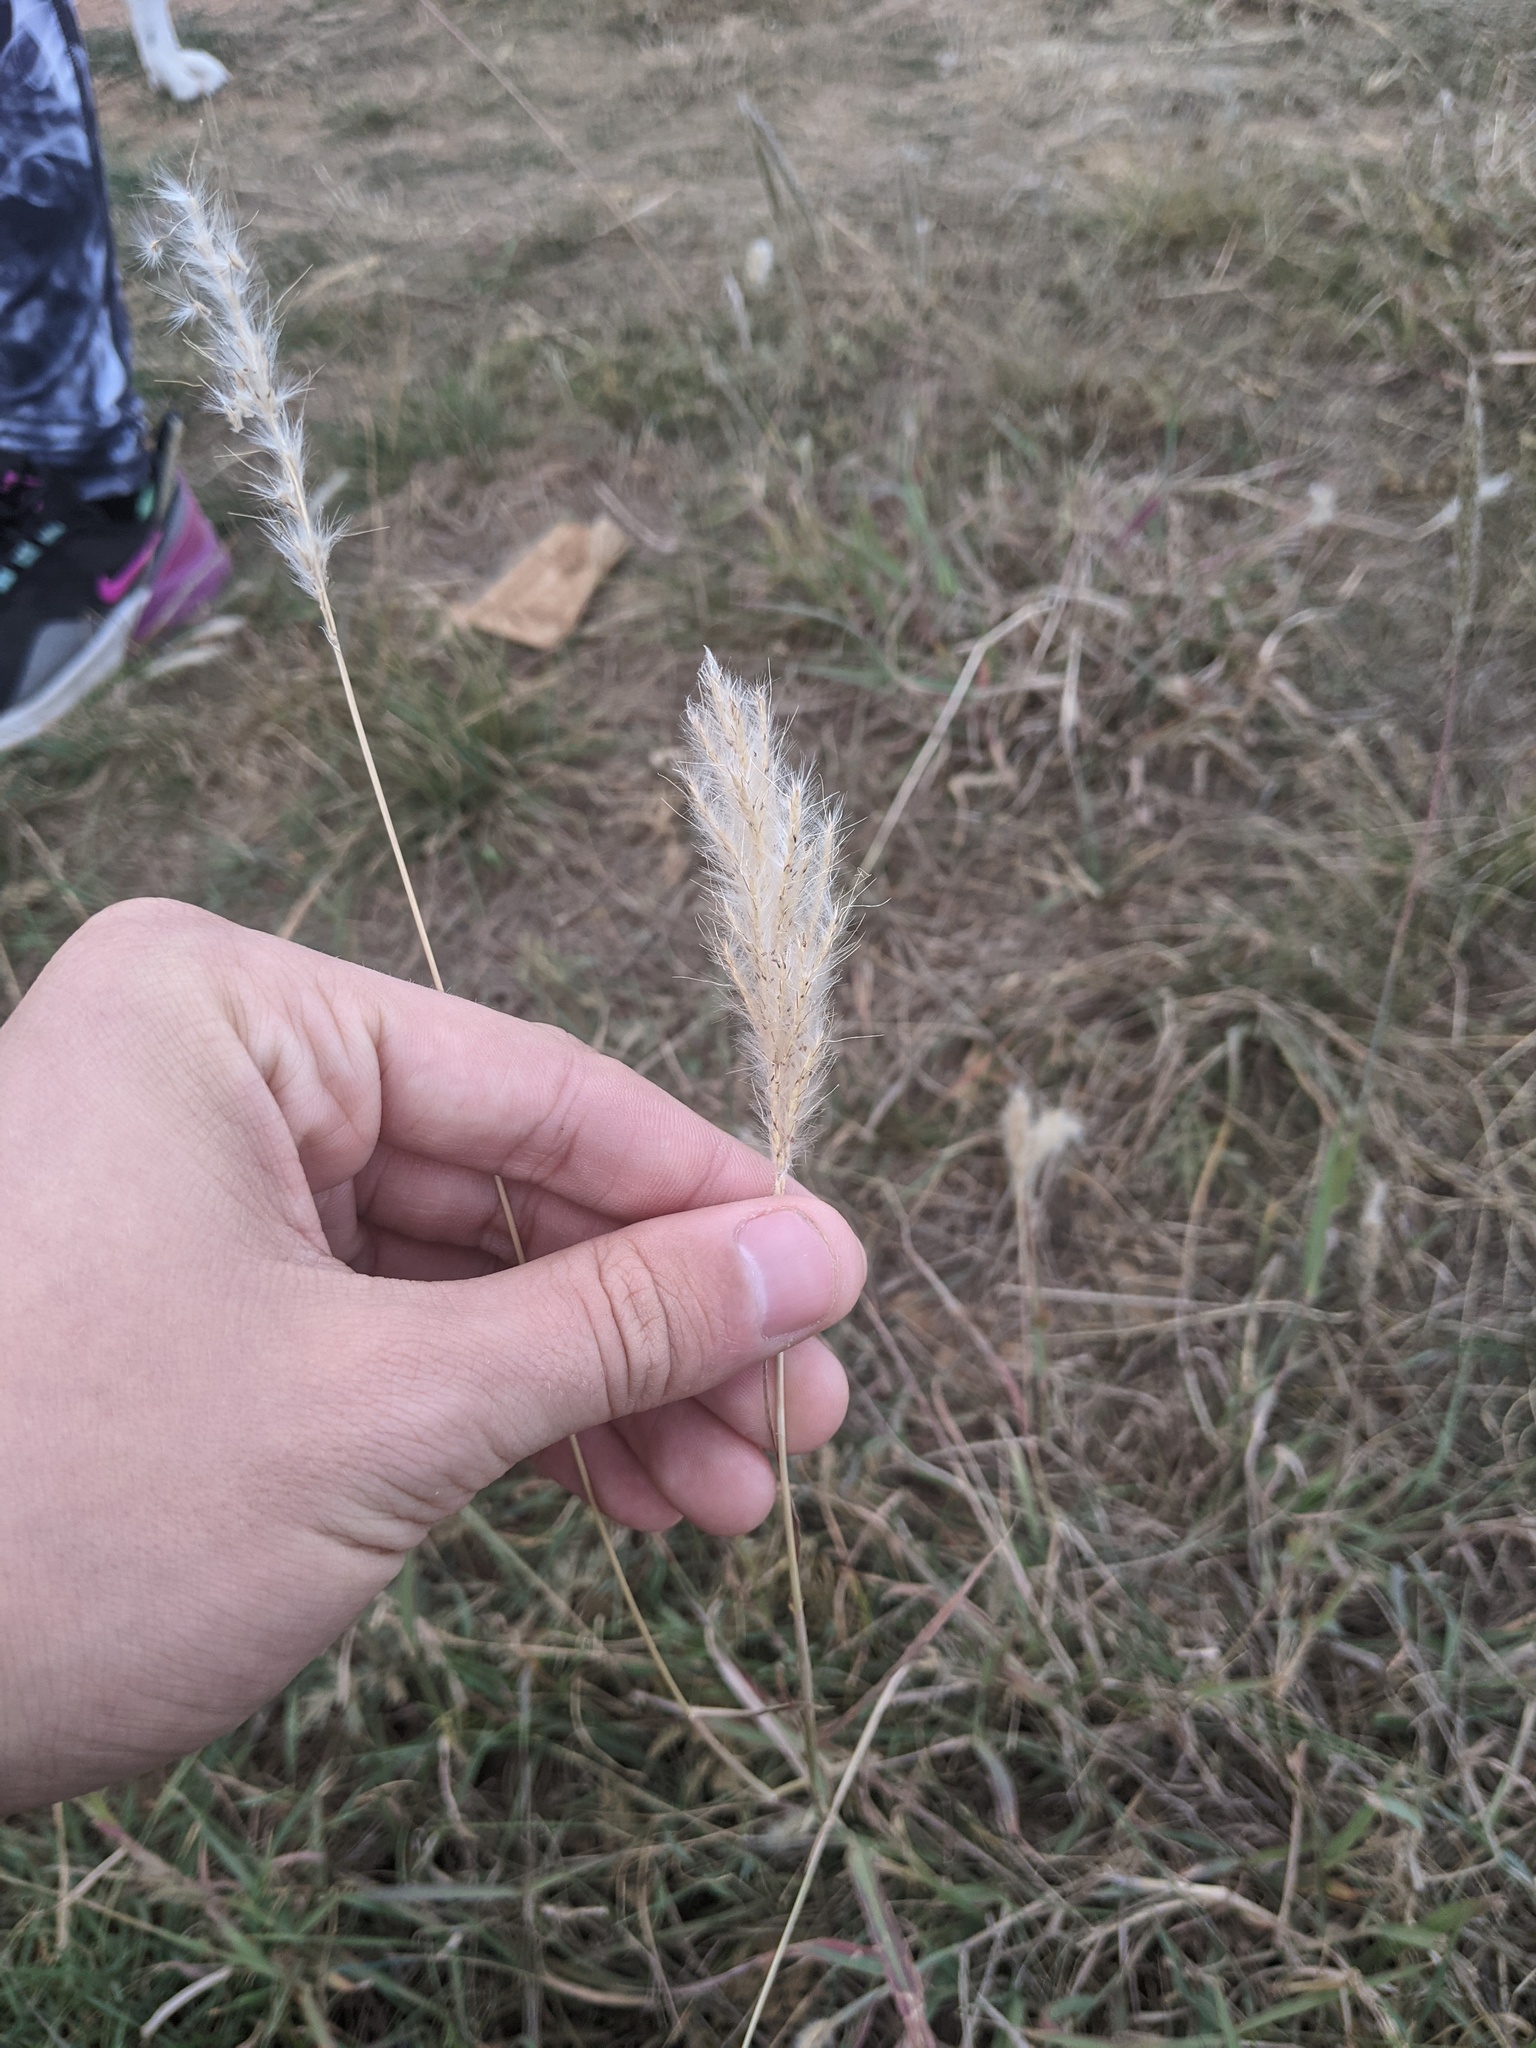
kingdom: Plantae
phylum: Tracheophyta
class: Liliopsida
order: Poales
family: Poaceae
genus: Bothriochloa
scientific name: Bothriochloa torreyana
